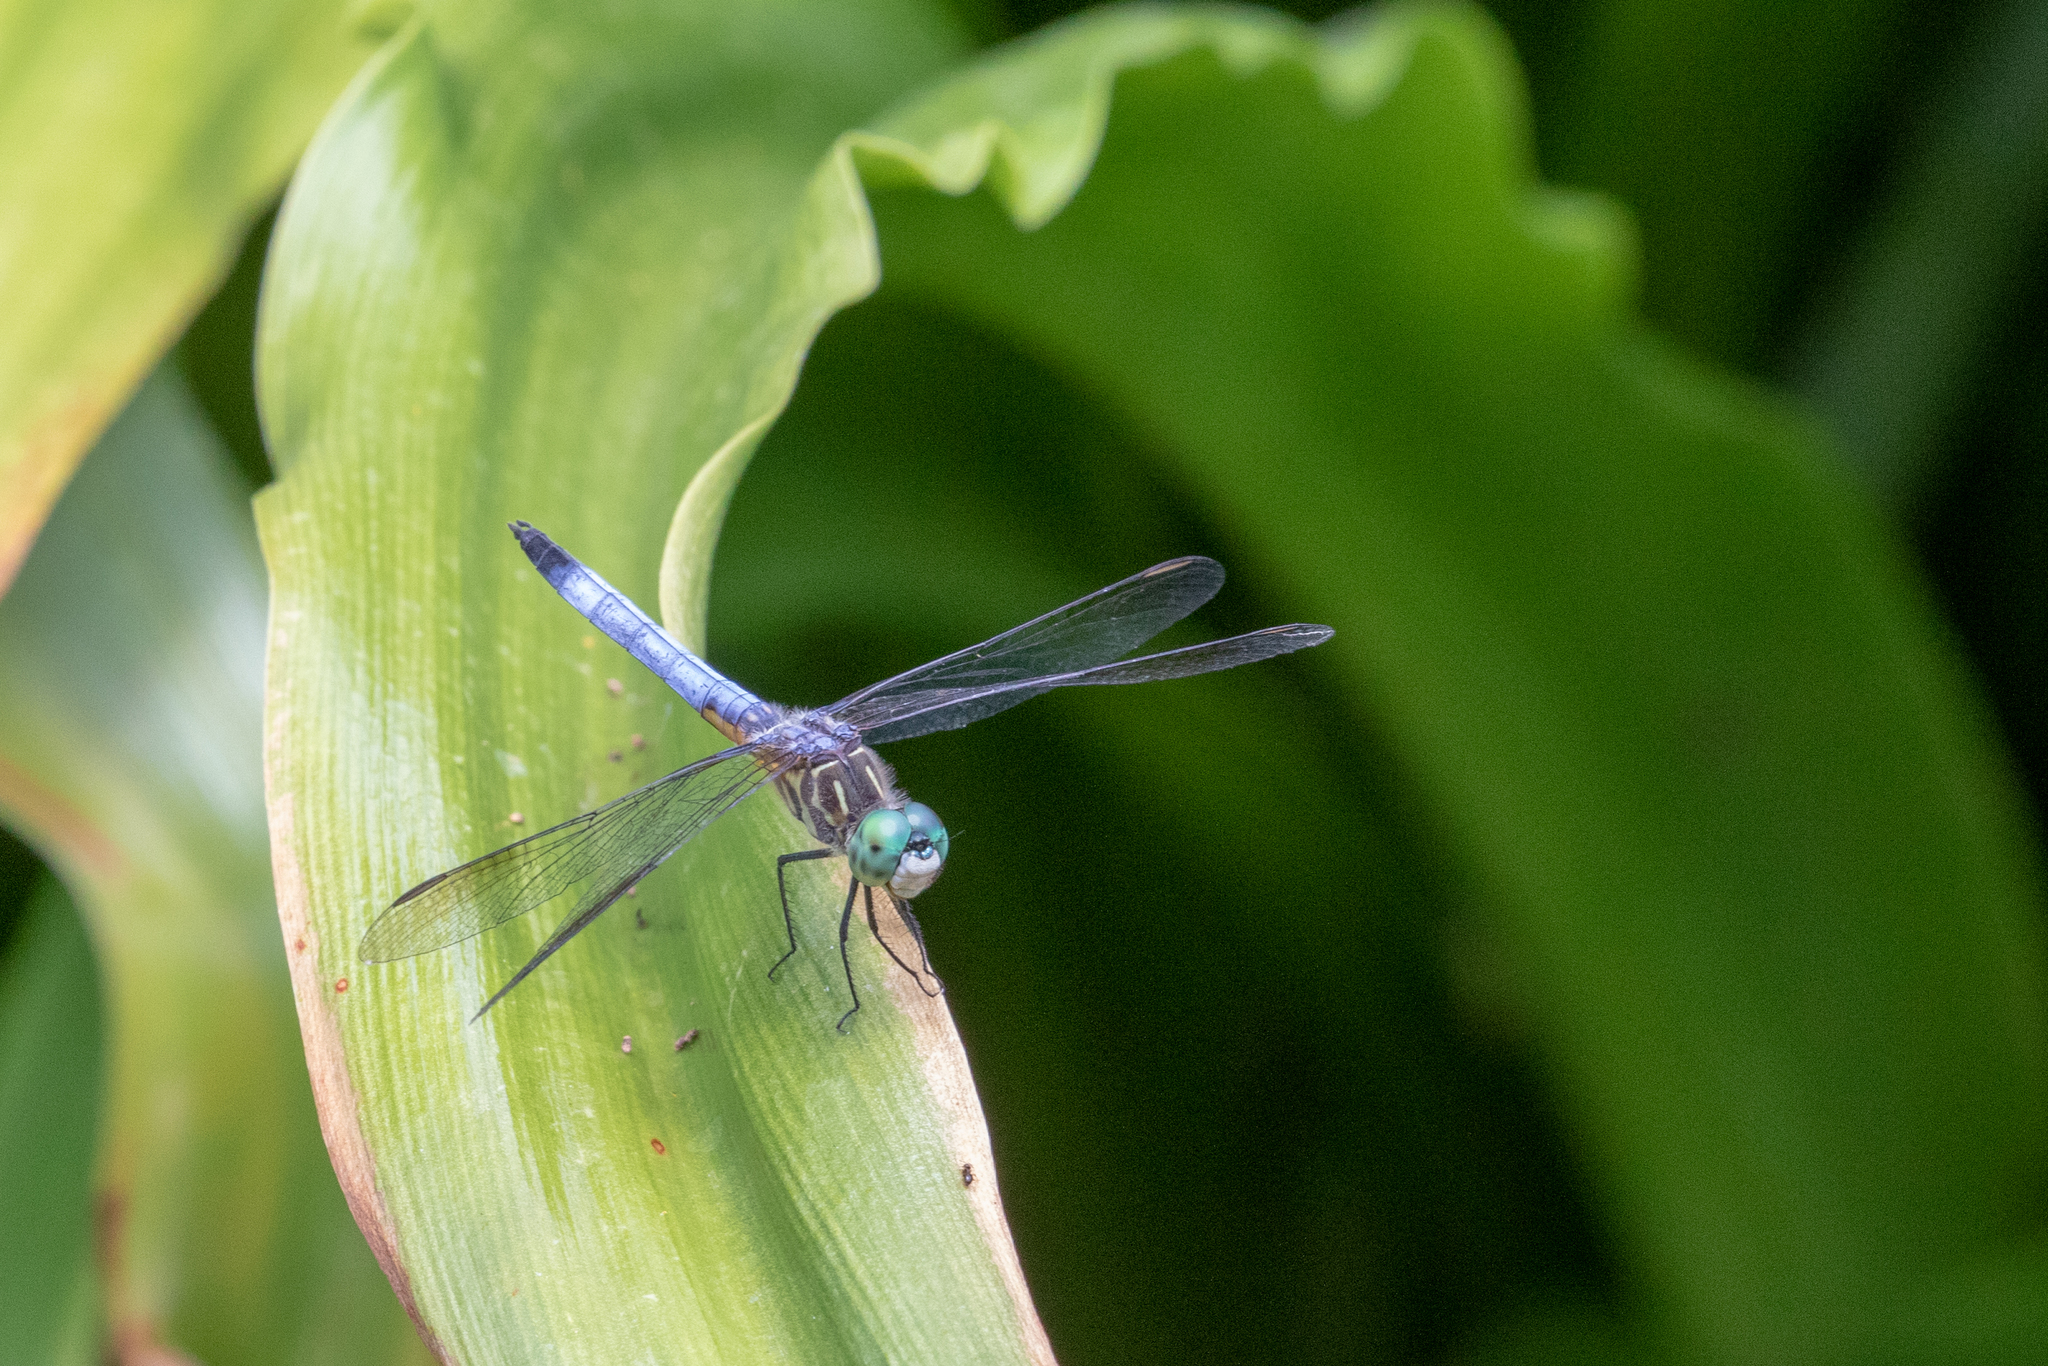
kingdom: Animalia
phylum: Arthropoda
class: Insecta
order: Odonata
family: Libellulidae
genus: Pachydiplax
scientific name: Pachydiplax longipennis
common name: Blue dasher
